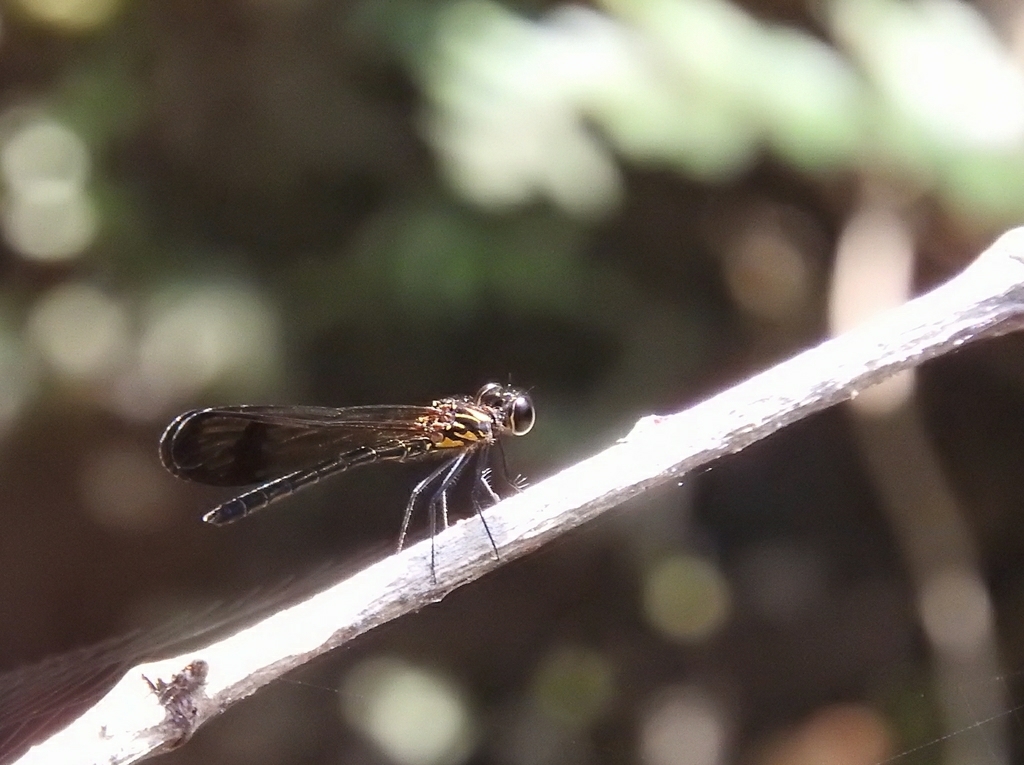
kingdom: Animalia
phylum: Arthropoda
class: Insecta
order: Odonata
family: Chlorocyphidae
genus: Heliocypha
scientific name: Heliocypha bisignata
